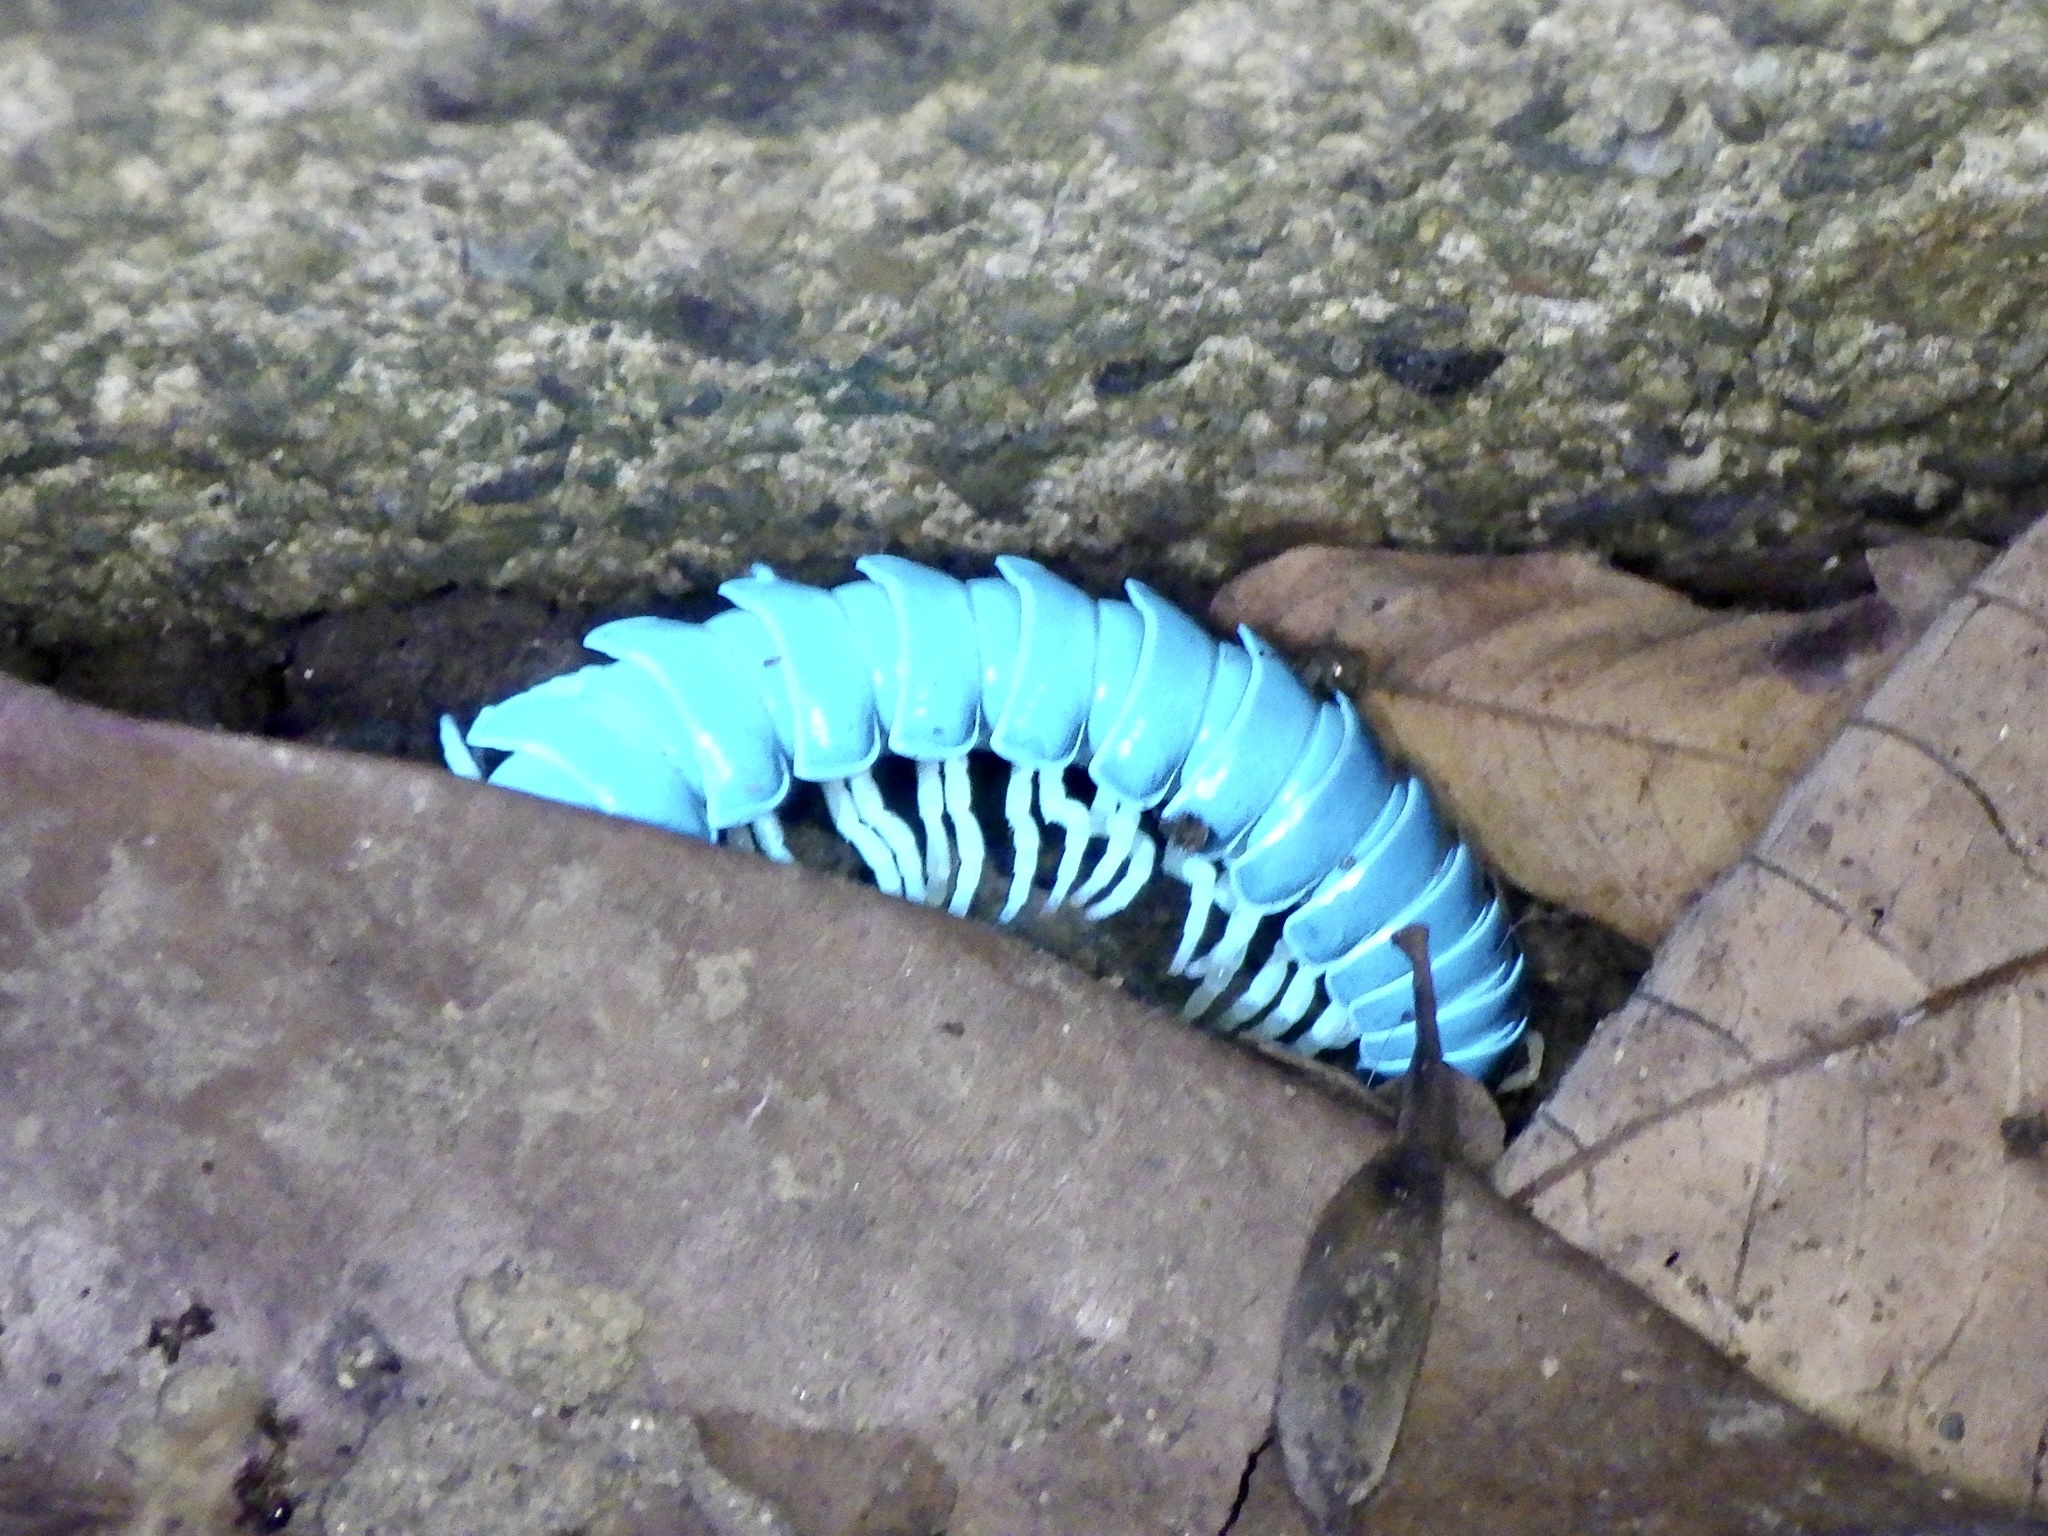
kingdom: Animalia
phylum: Arthropoda
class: Diplopoda
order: Polydesmida
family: Xystodesmidae
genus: Parafontaria
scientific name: Parafontaria tonominea
